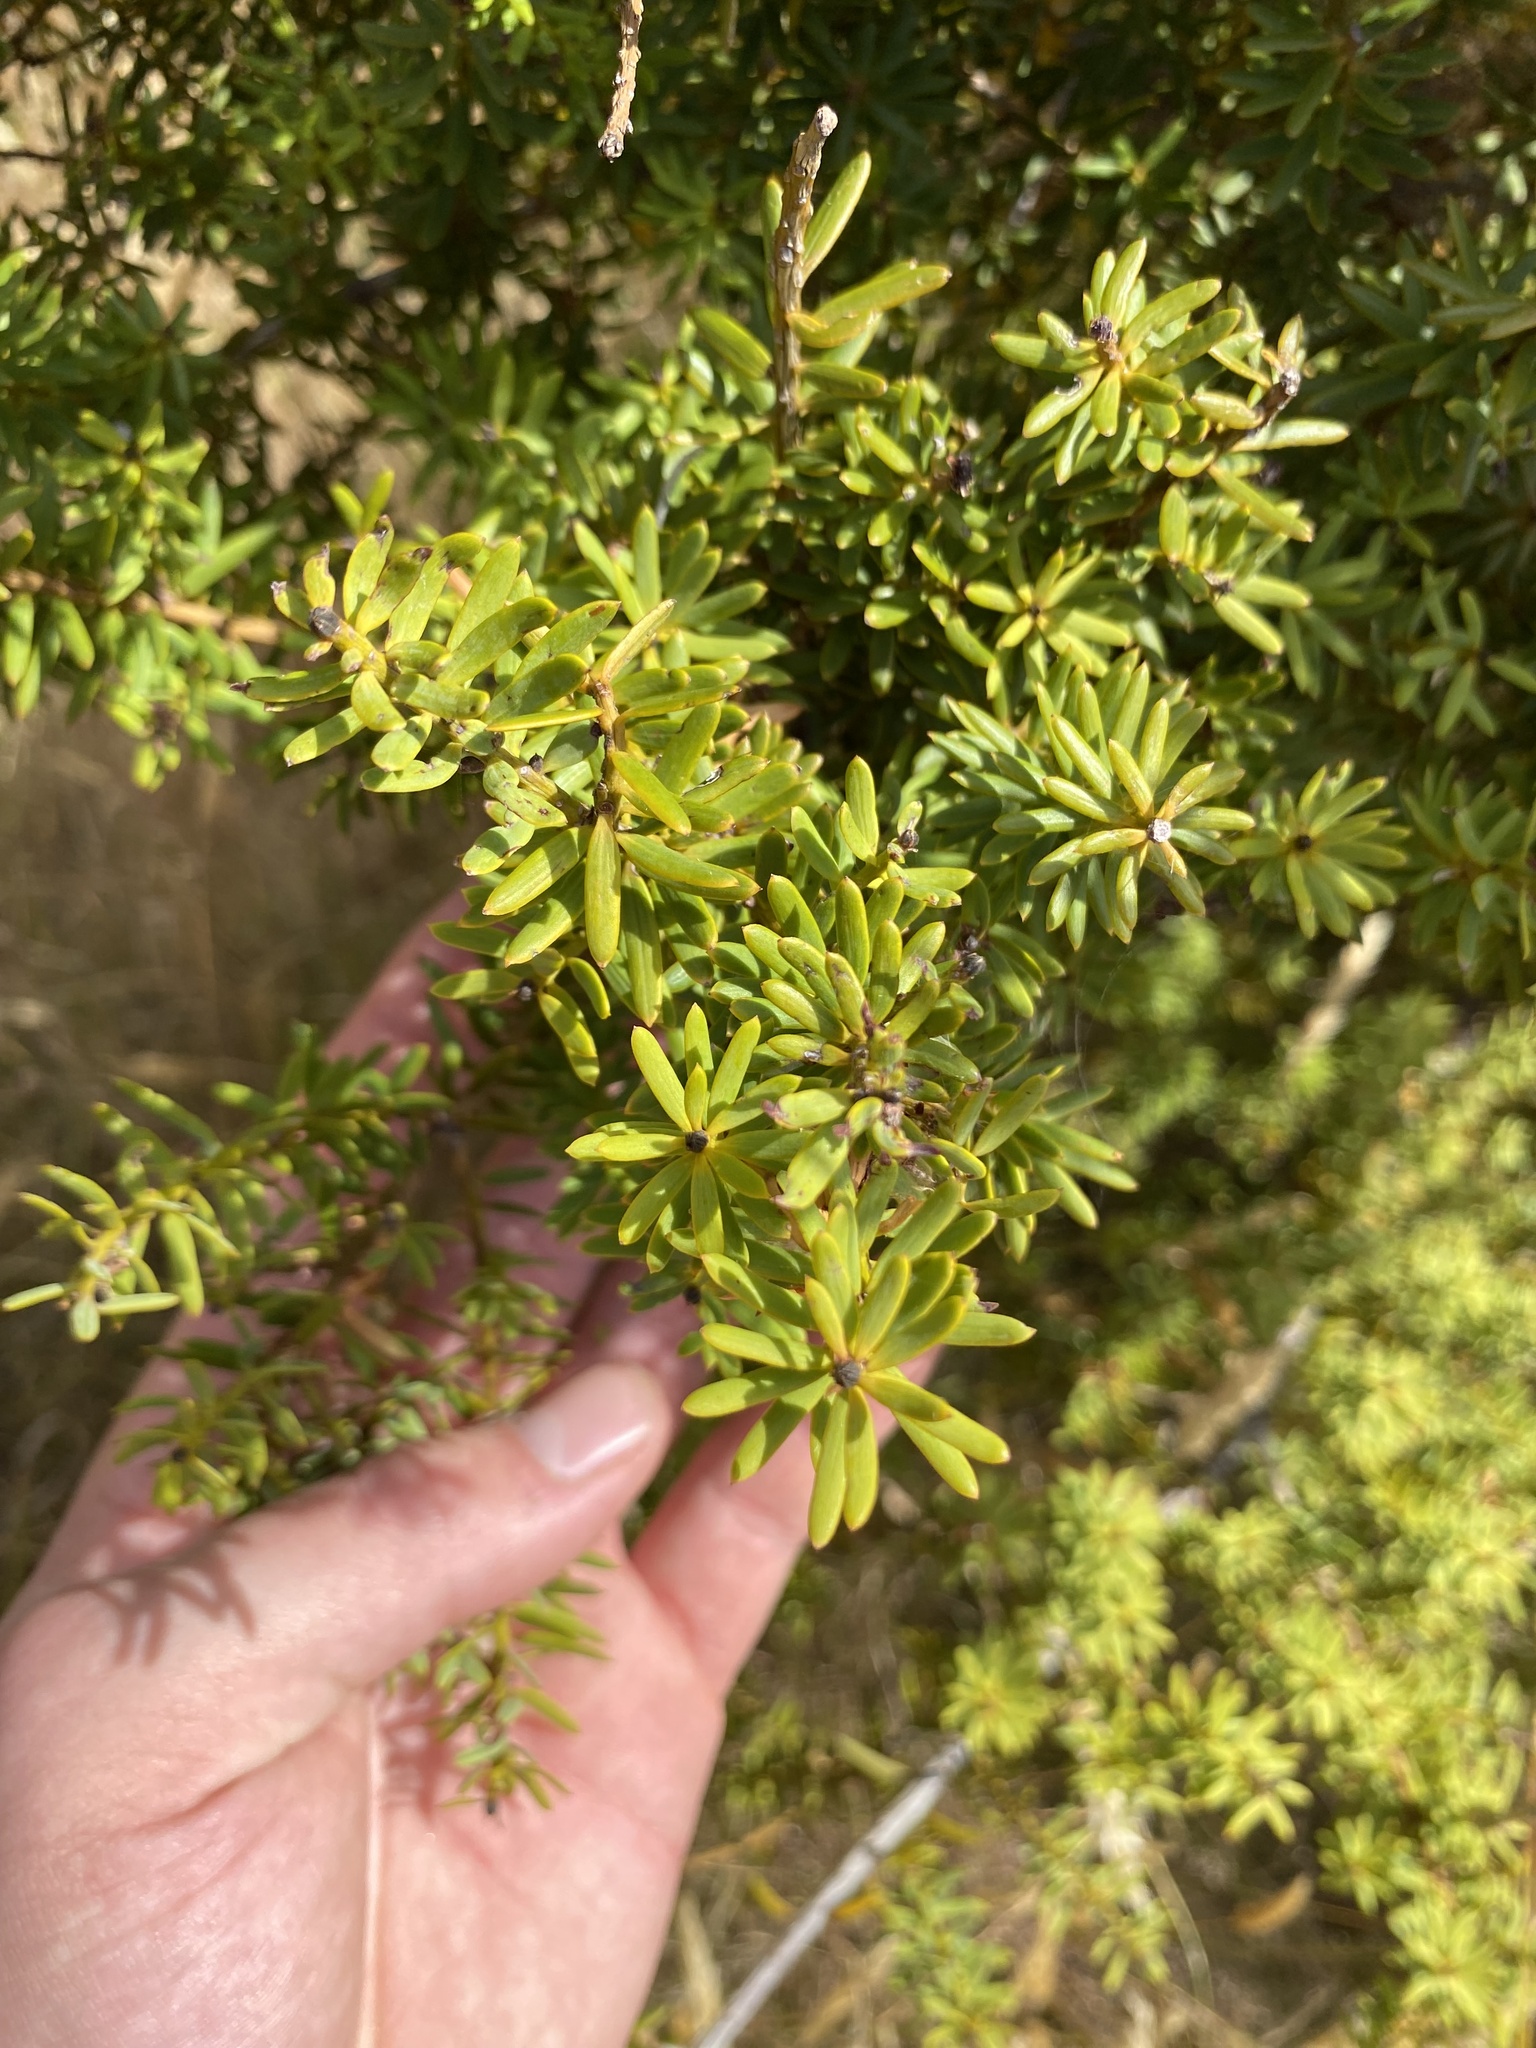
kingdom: Plantae
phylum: Tracheophyta
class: Pinopsida
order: Pinales
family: Podocarpaceae
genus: Podocarpus
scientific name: Podocarpus totara
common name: Totara
